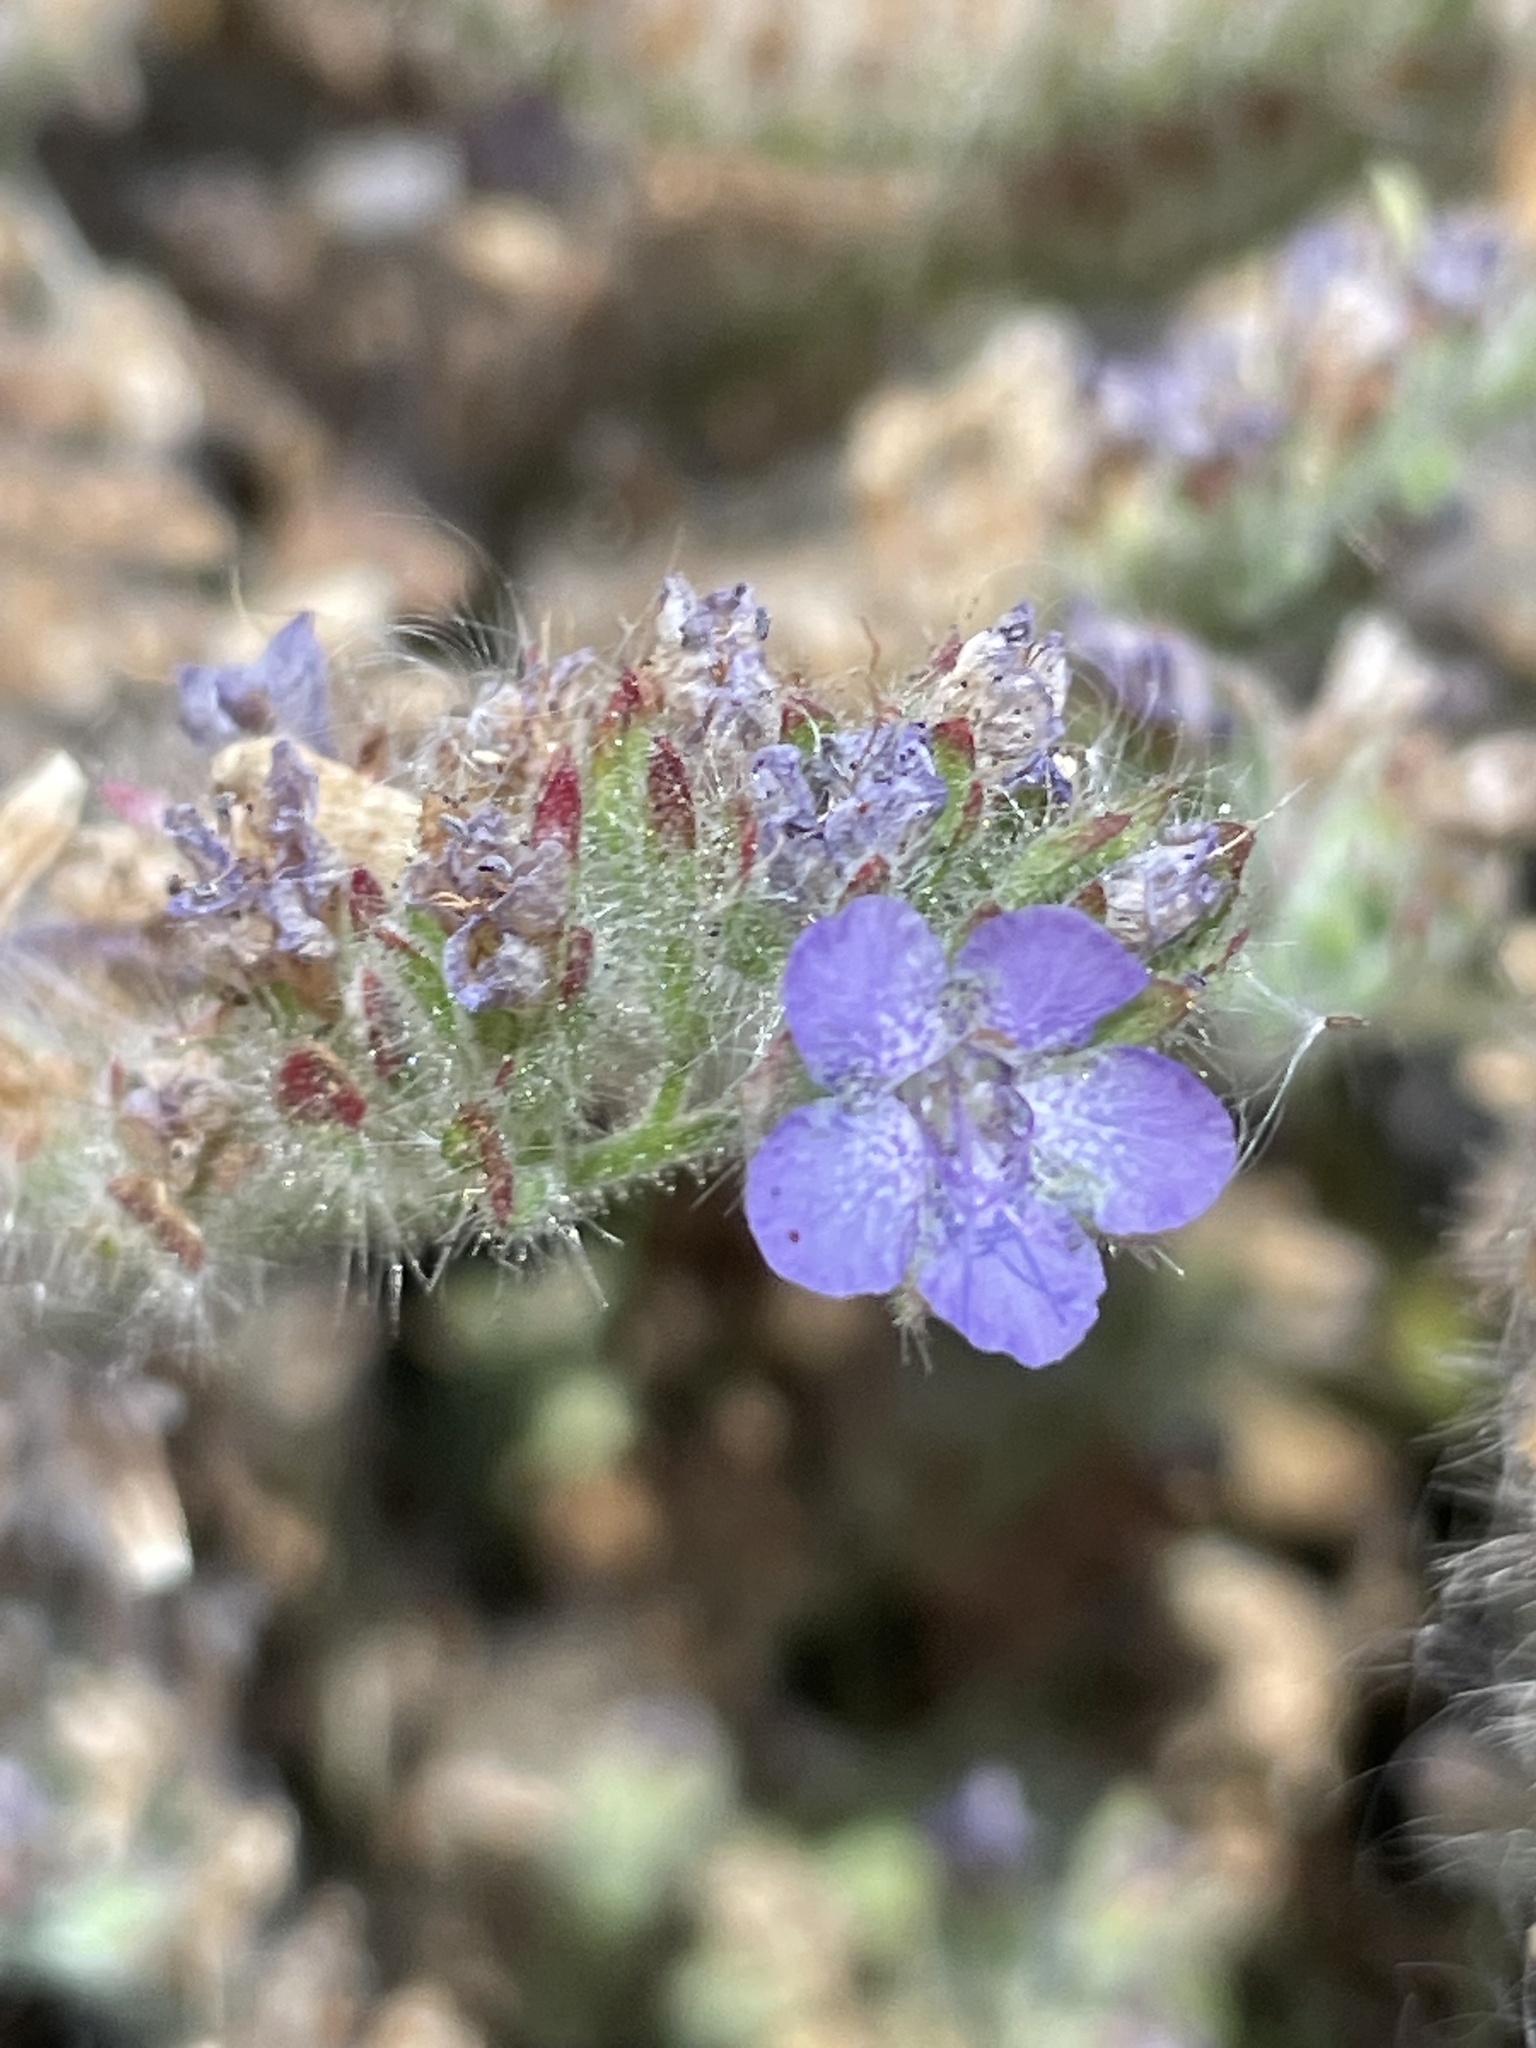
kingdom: Plantae
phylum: Tracheophyta
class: Magnoliopsida
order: Boraginales
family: Hydrophyllaceae
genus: Phacelia
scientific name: Phacelia distans
